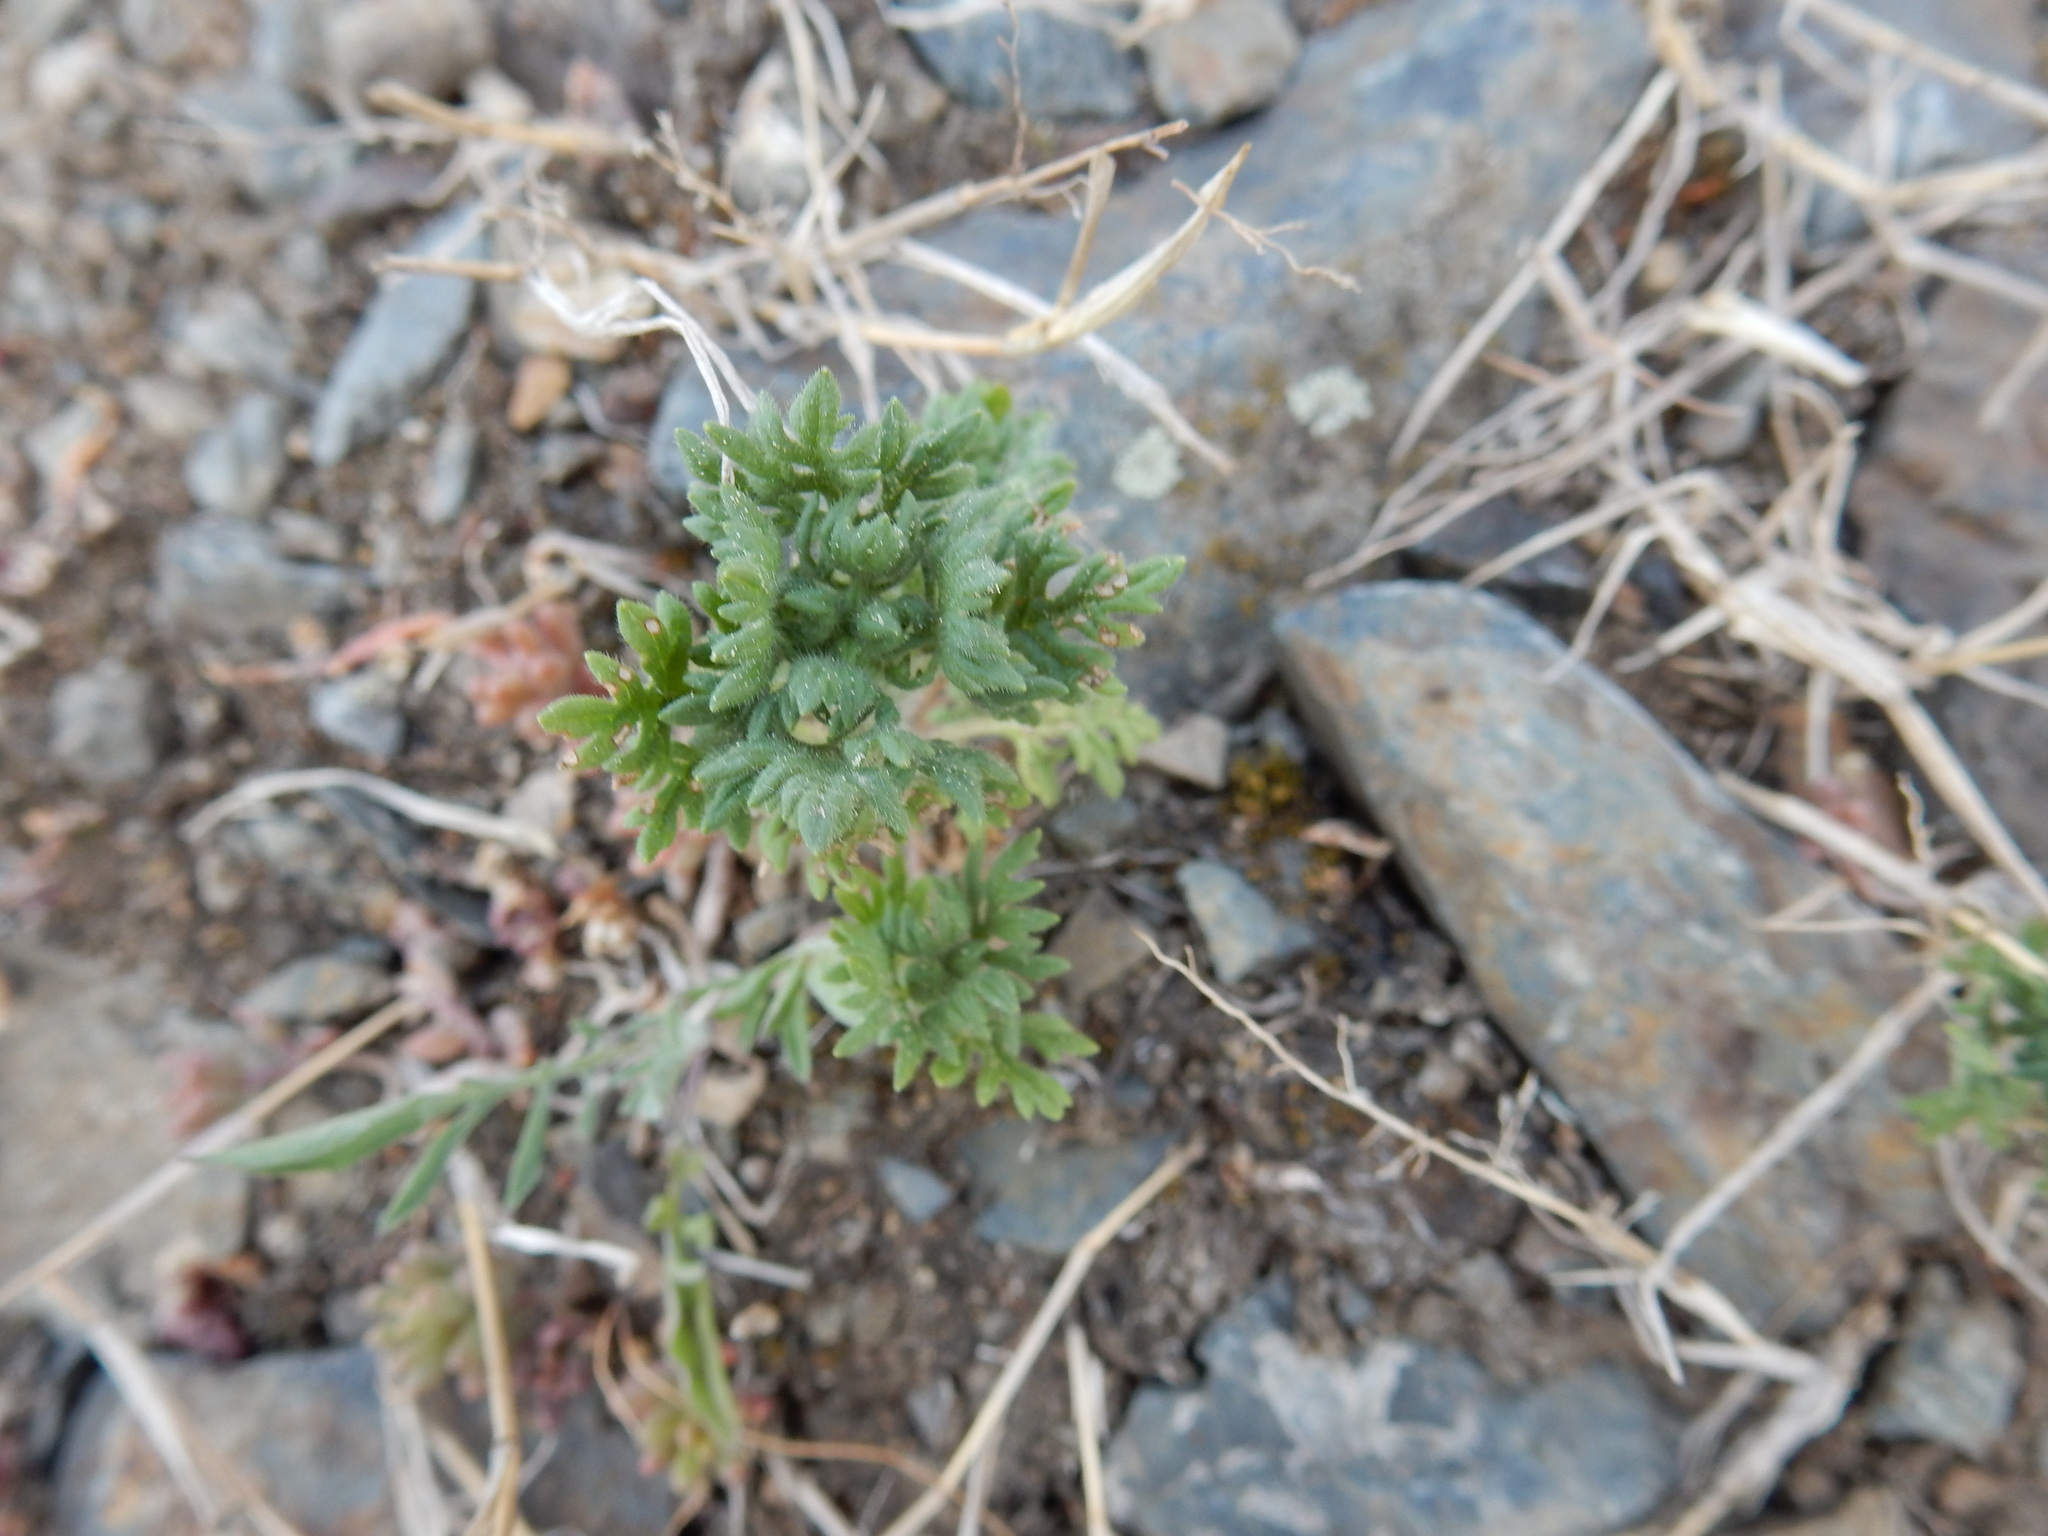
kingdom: Plantae
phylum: Tracheophyta
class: Magnoliopsida
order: Lamiales
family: Lamiaceae
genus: Teucrium
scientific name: Teucrium botrys
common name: Cut-leaved germander
